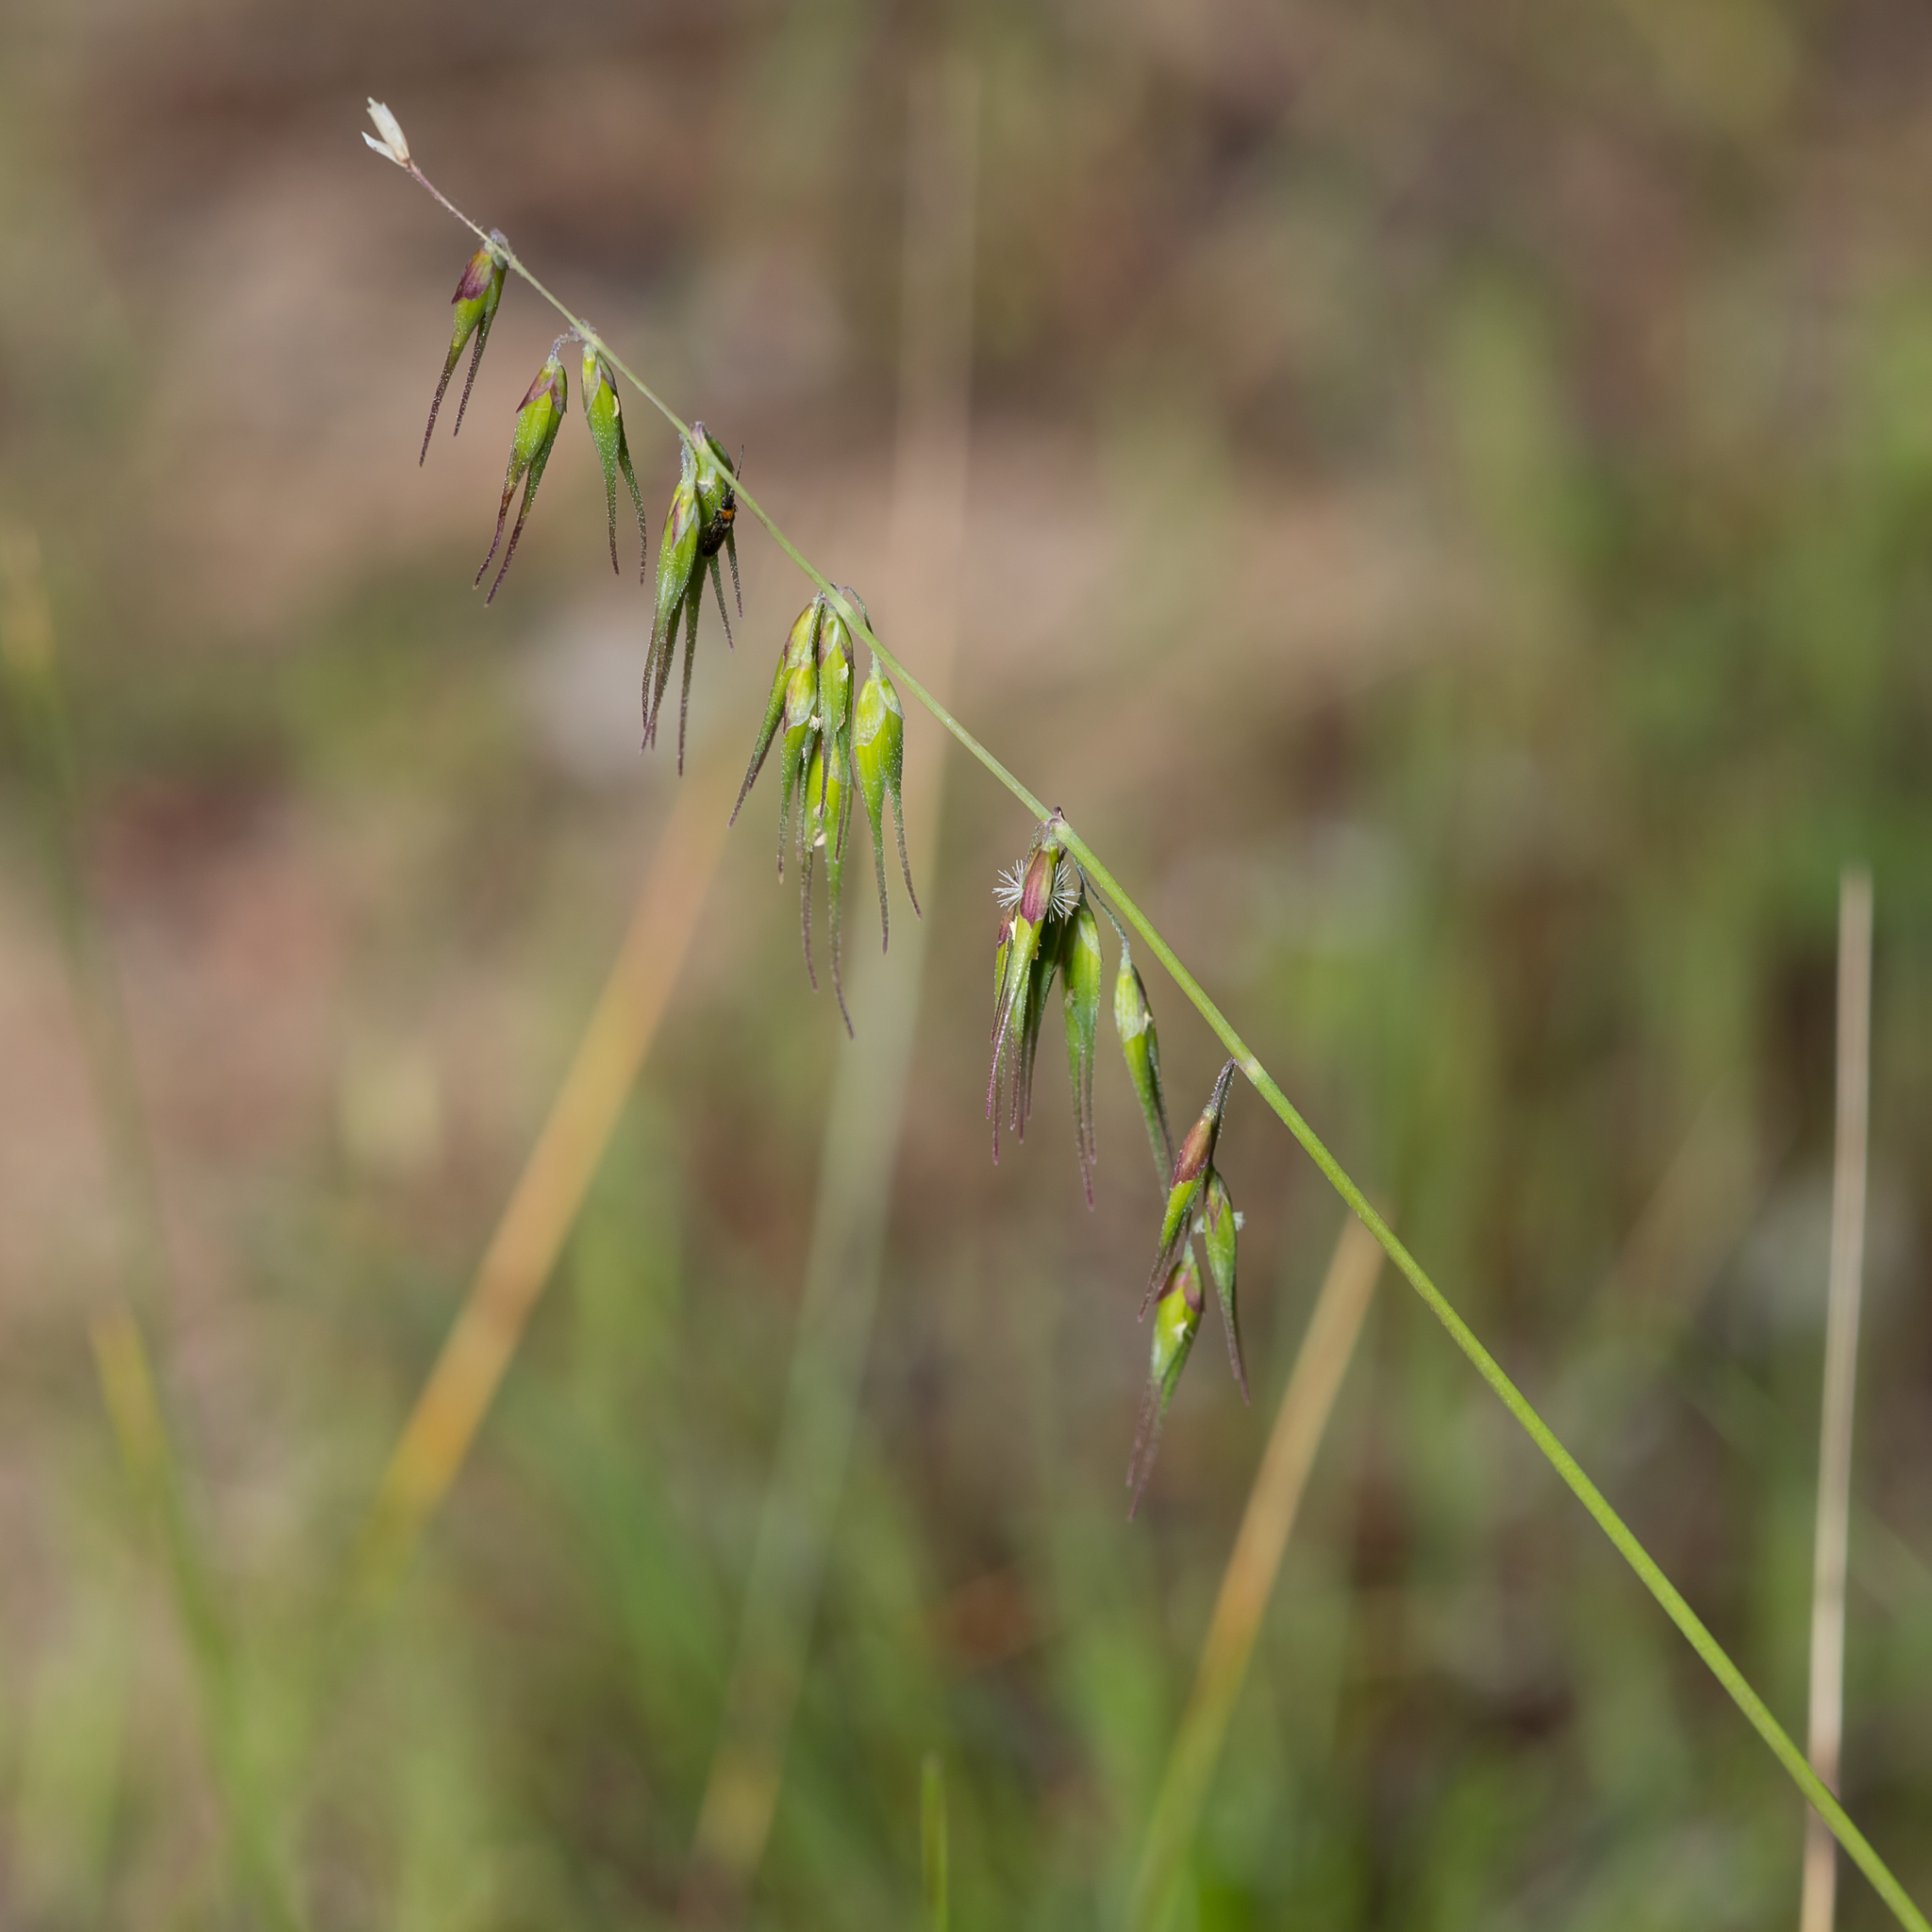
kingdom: Plantae
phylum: Tracheophyta
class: Liliopsida
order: Poales
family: Poaceae
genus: Ehrharta
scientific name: Ehrharta longiflora
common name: Longflowered veldtgrass
